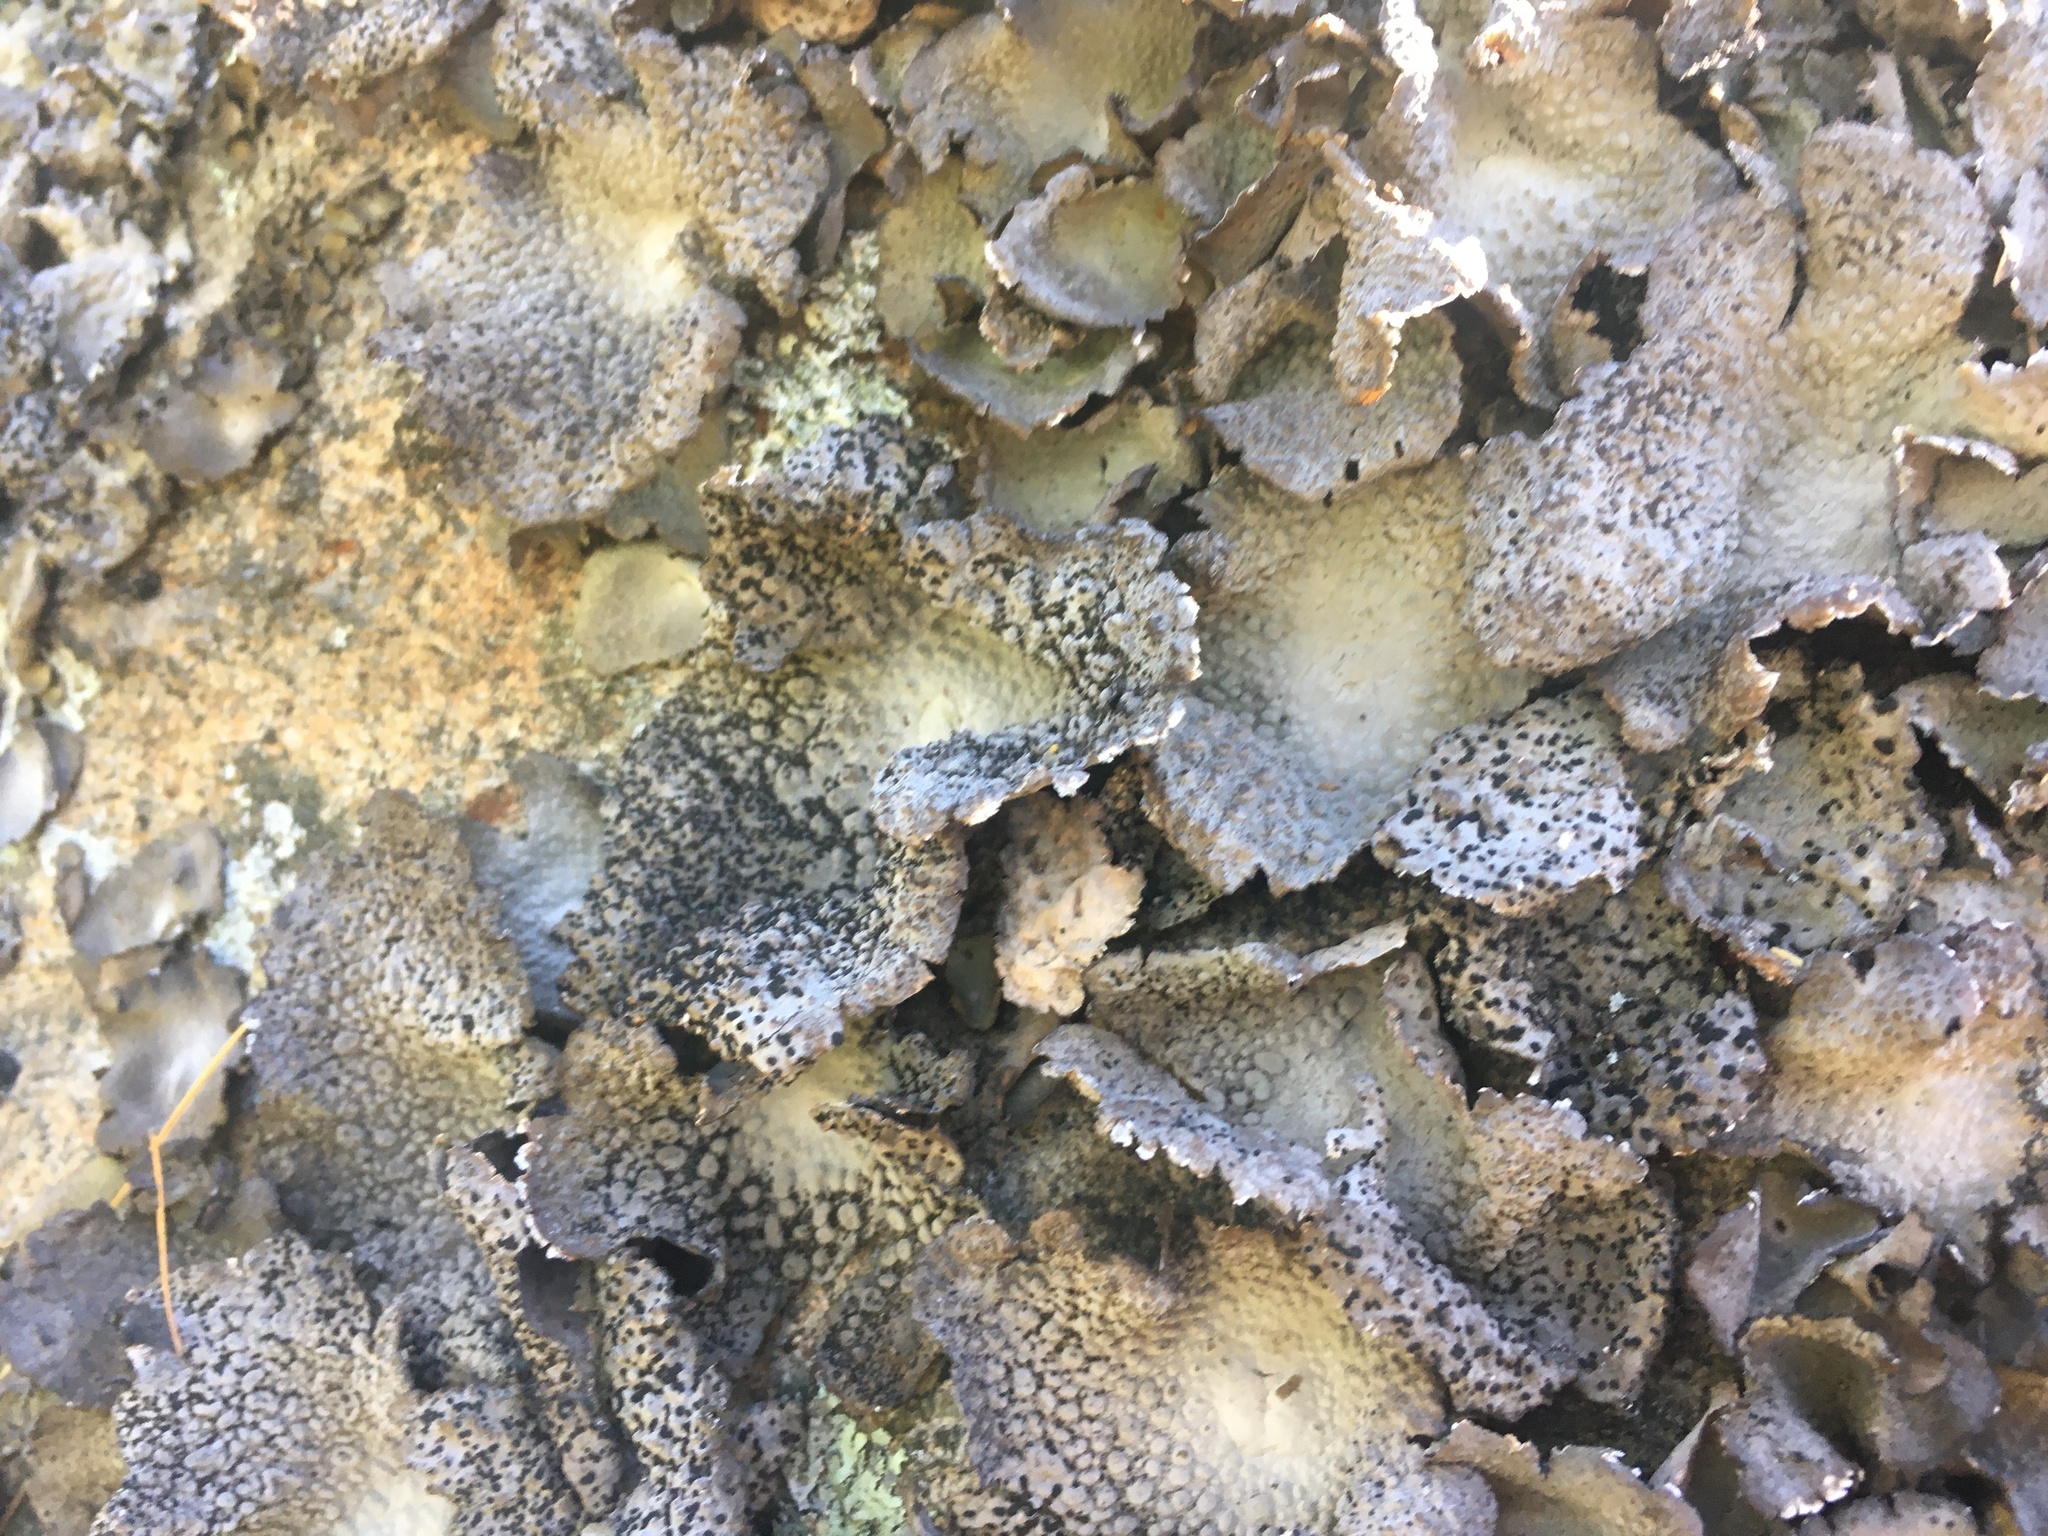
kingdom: Fungi
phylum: Ascomycota
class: Lecanoromycetes
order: Umbilicariales
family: Umbilicariaceae
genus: Lasallia
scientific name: Lasallia papulosa
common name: Common toadskin lichen
